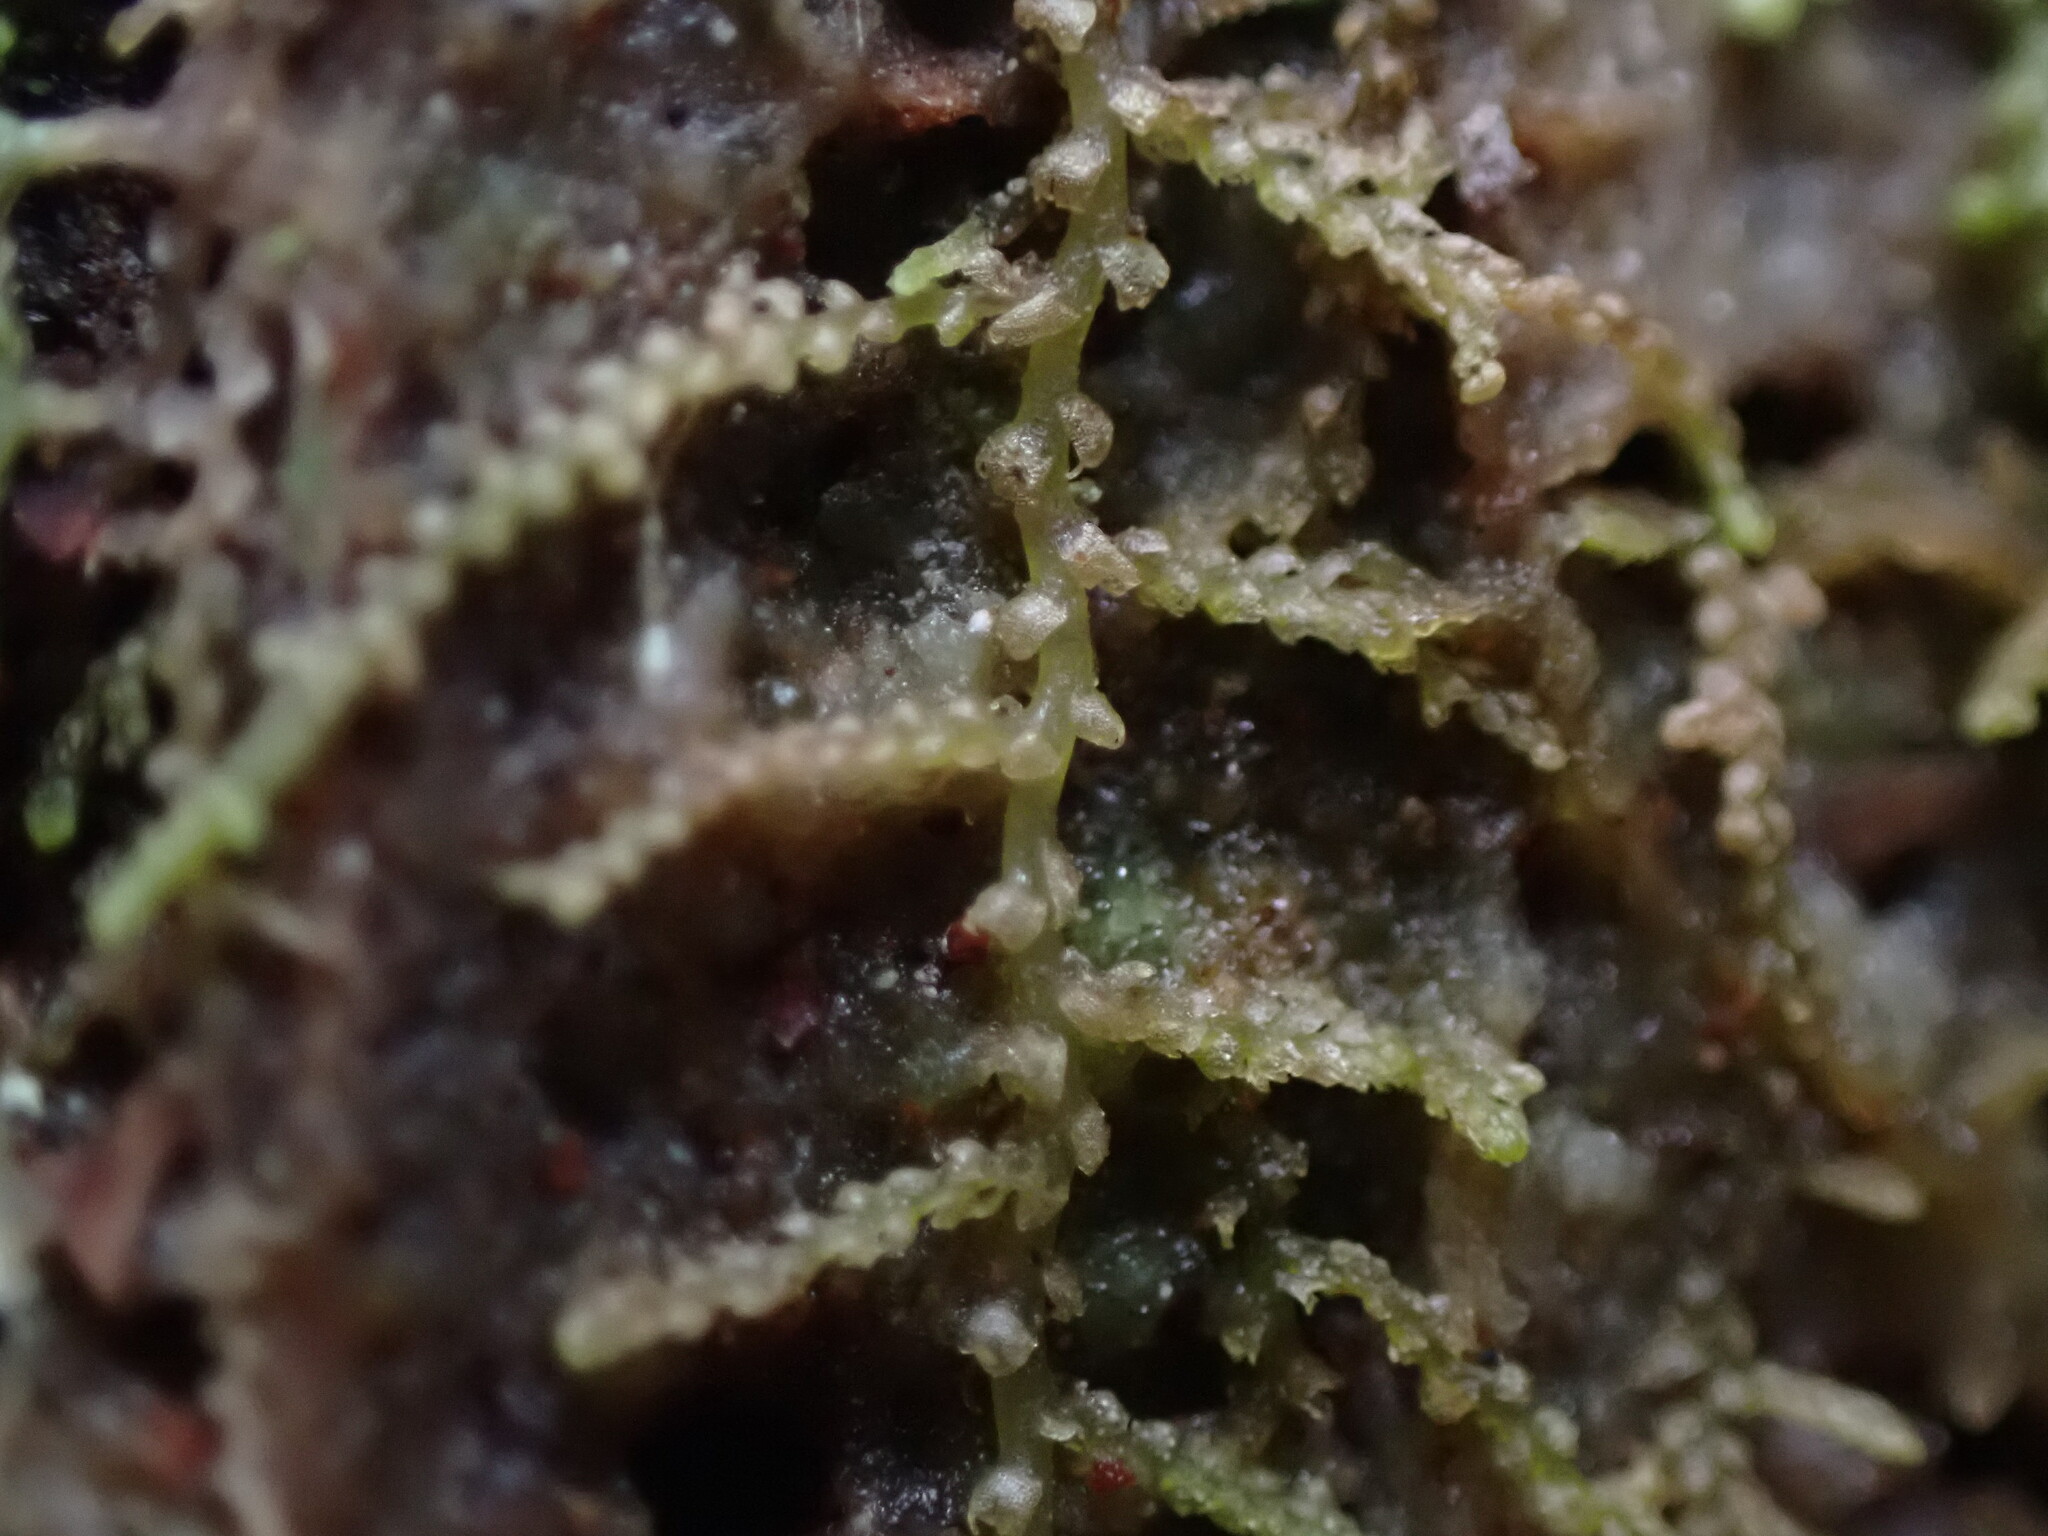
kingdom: Plantae
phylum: Marchantiophyta
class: Jungermanniopsida
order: Jungermanniales
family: Lepidoziaceae
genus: Lepidozia
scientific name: Lepidozia reptans
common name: Creeping fingerwort
